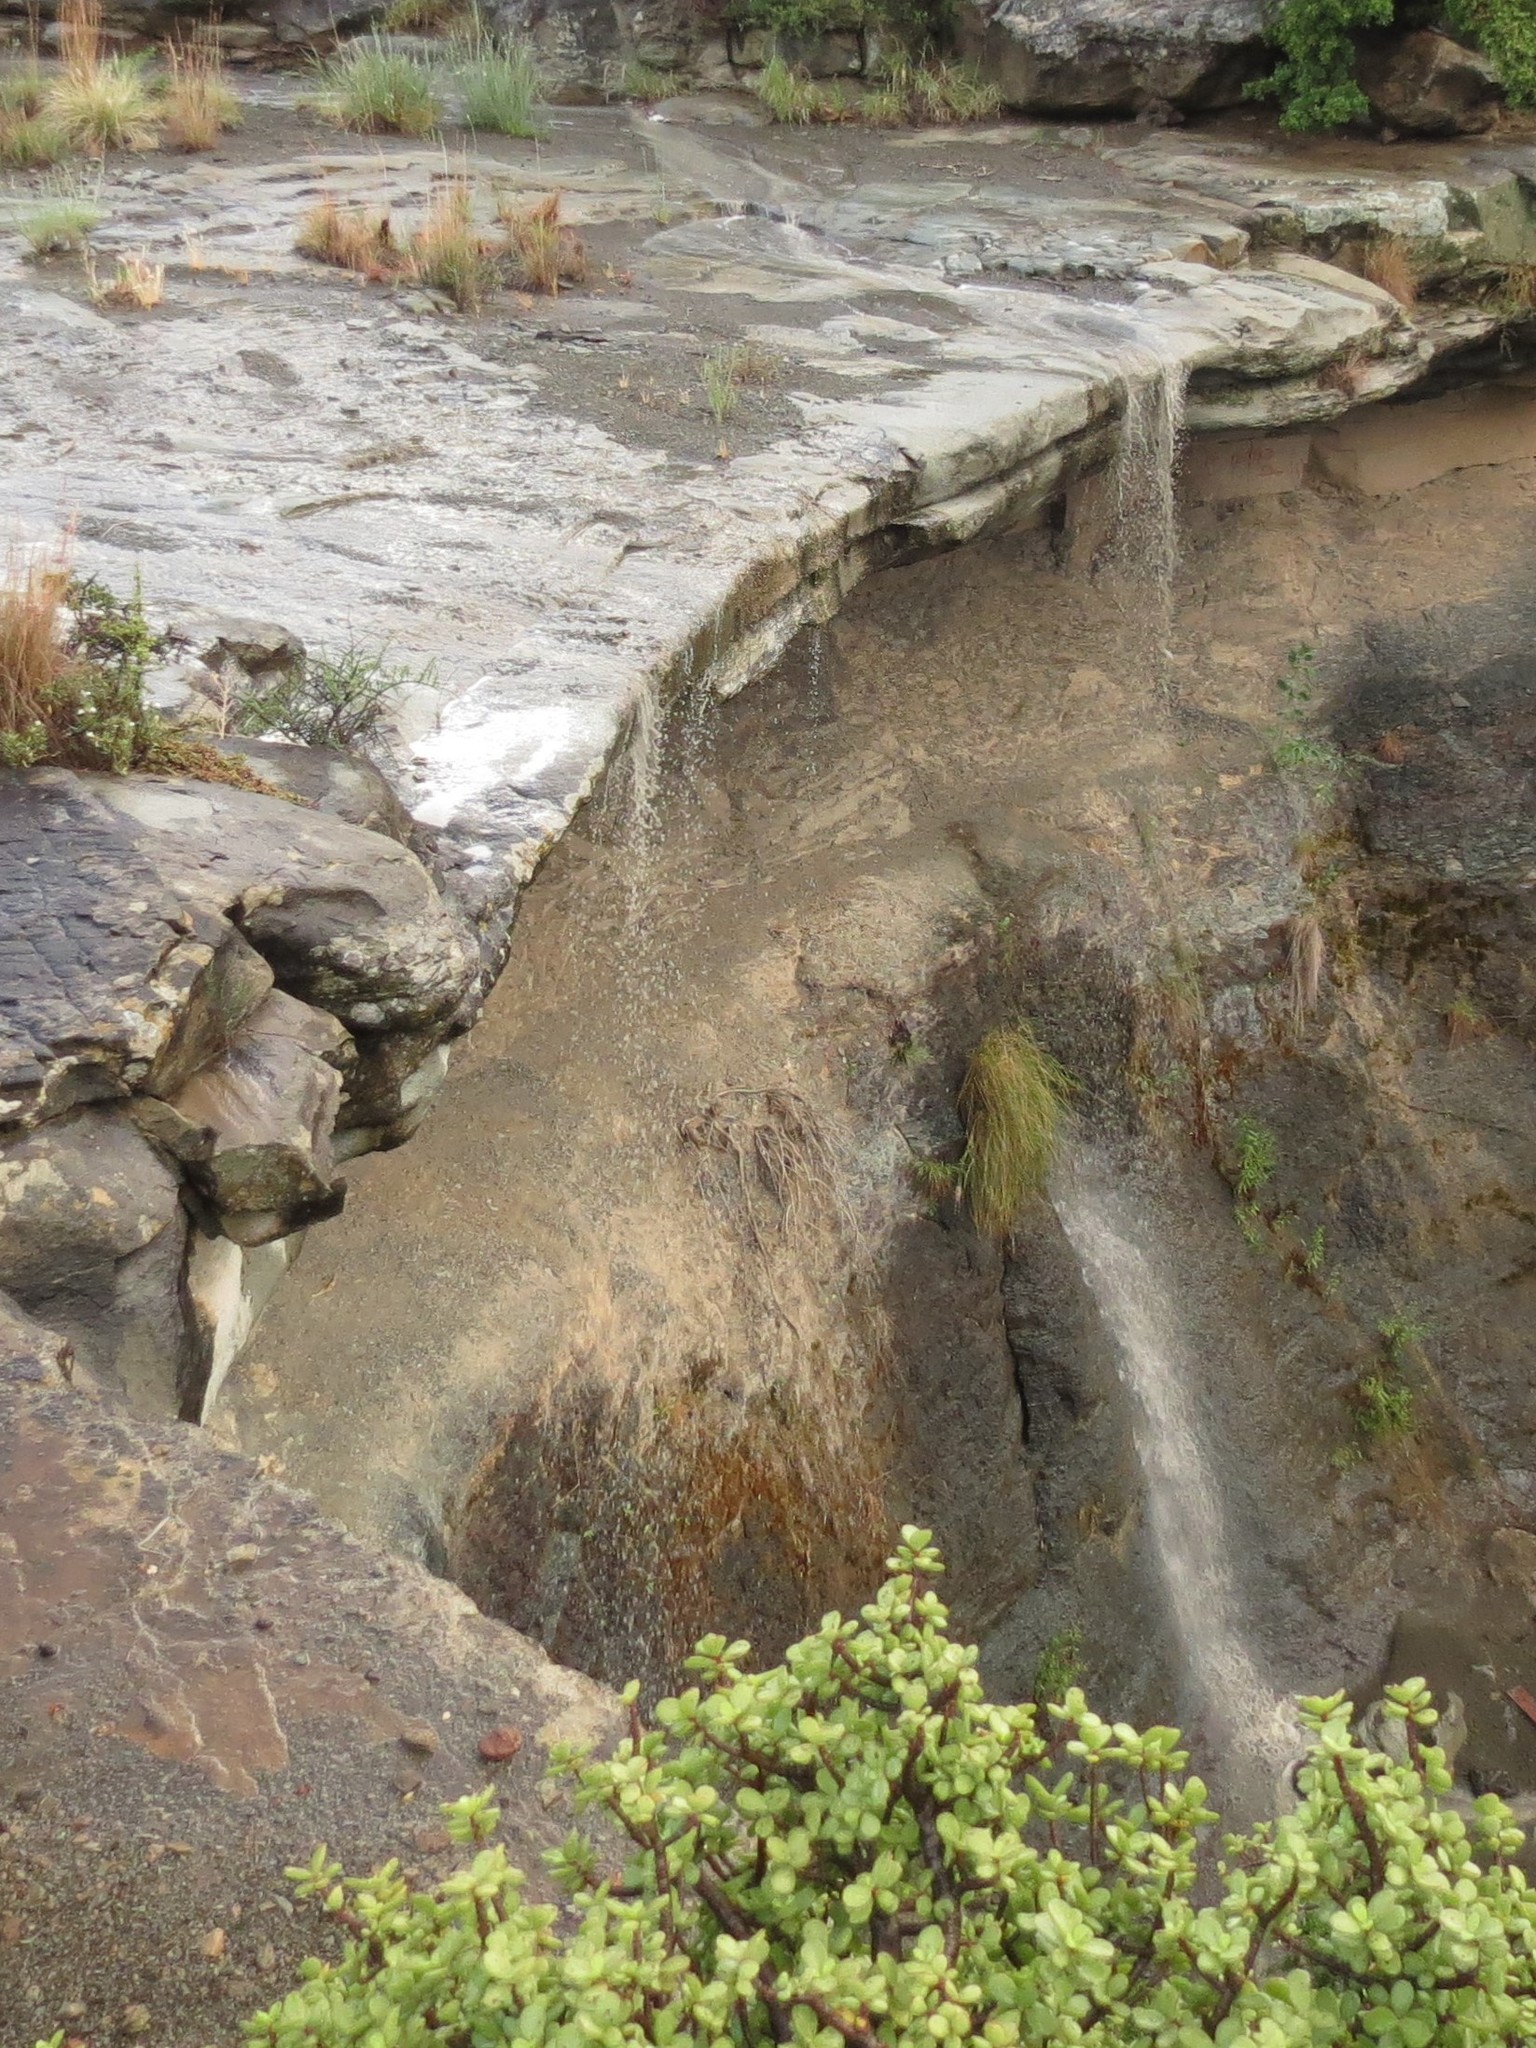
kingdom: Plantae
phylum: Tracheophyta
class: Magnoliopsida
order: Caryophyllales
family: Didiereaceae
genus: Portulacaria
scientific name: Portulacaria afra
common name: Elephant-bush
